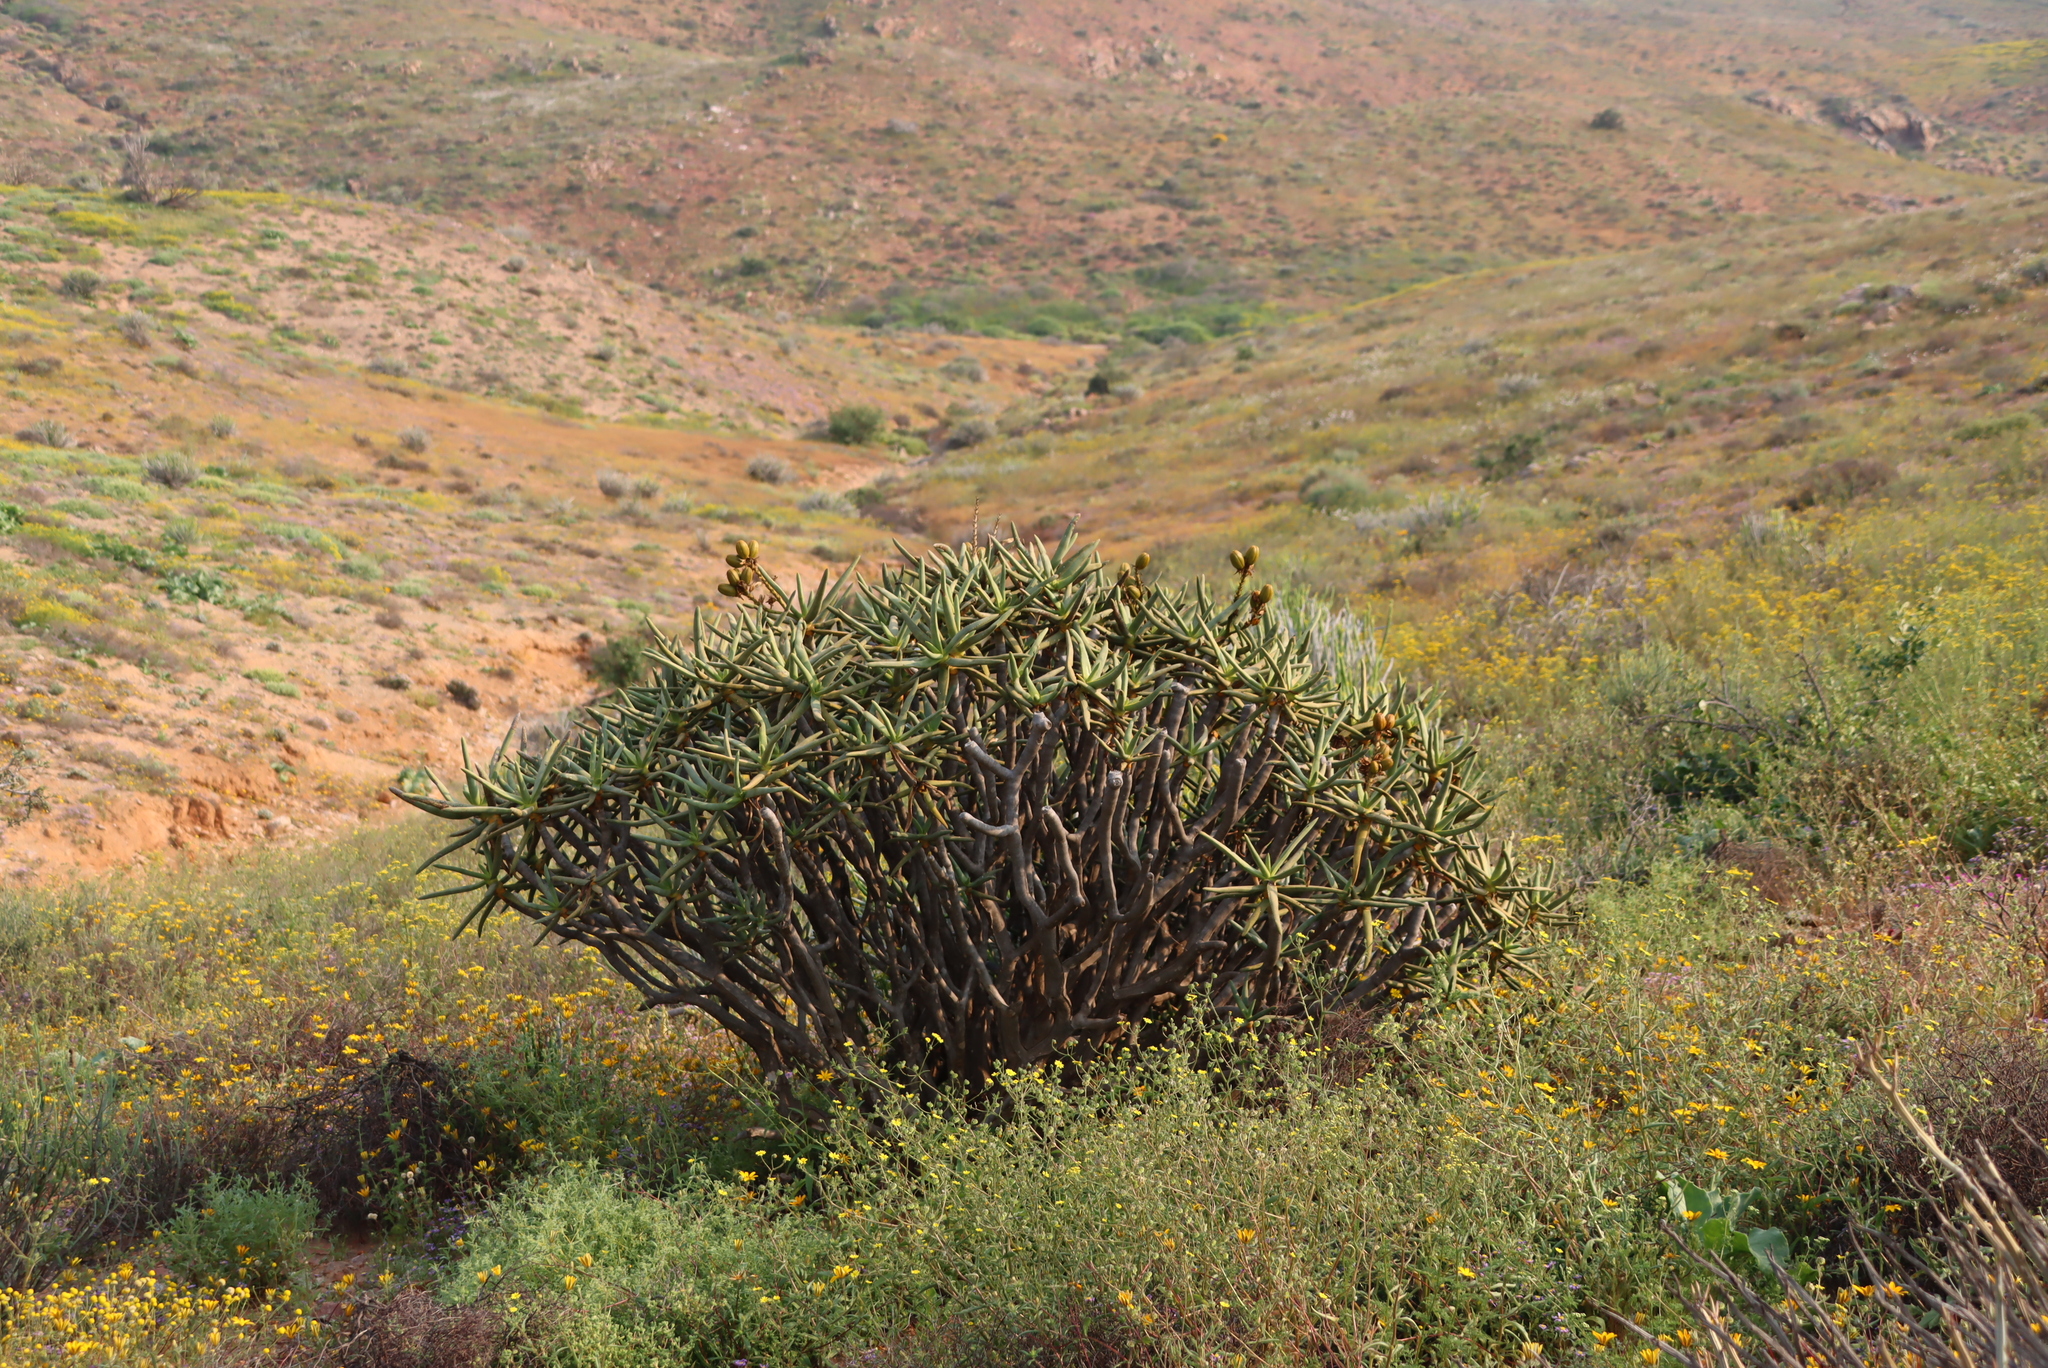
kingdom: Plantae
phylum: Tracheophyta
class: Liliopsida
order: Asparagales
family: Asphodelaceae
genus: Aloidendron
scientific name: Aloidendron ramosissimum
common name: Bush quiver tree
